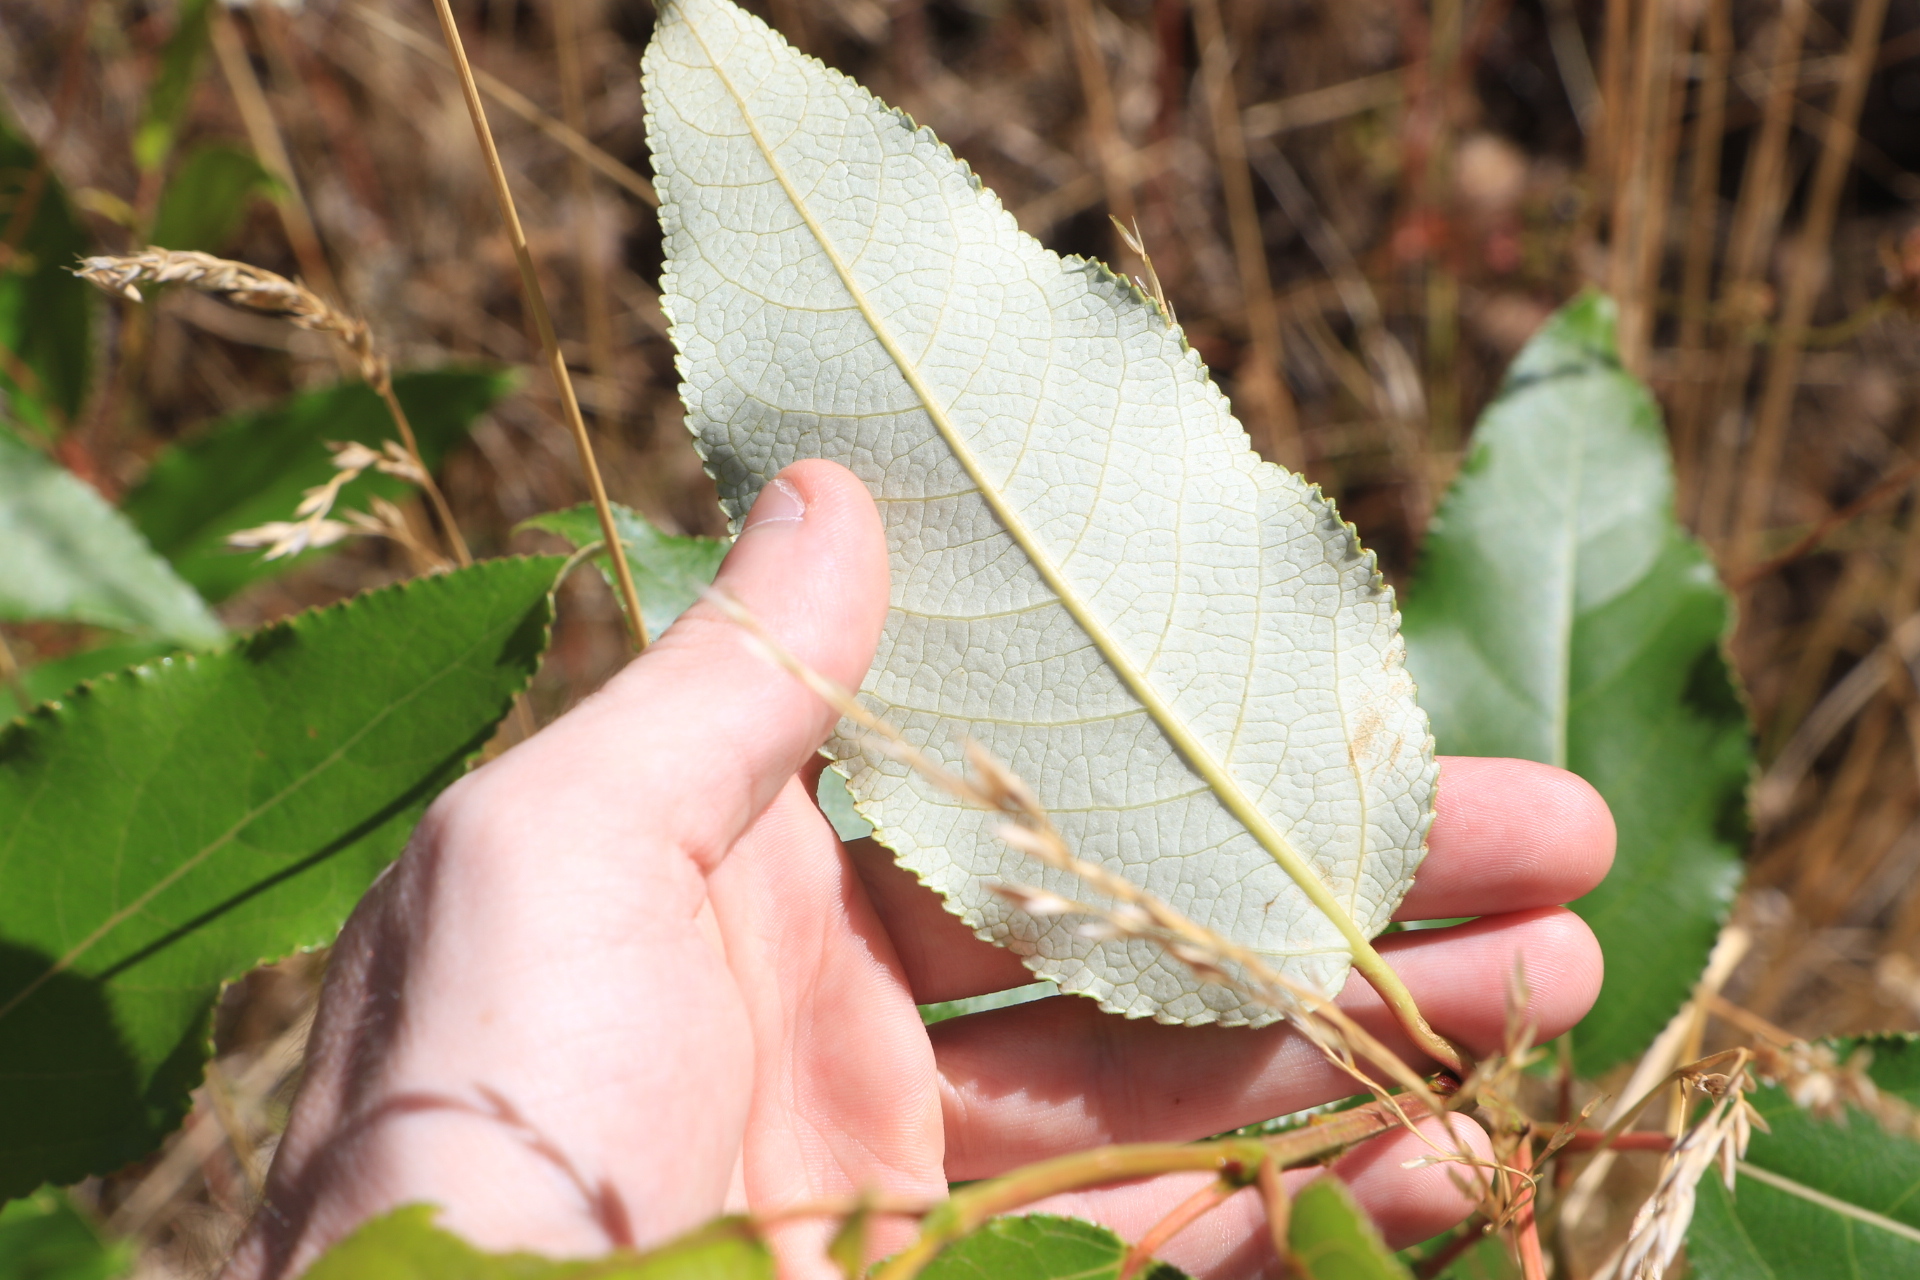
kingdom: Plantae
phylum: Tracheophyta
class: Magnoliopsida
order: Malpighiales
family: Salicaceae
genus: Populus
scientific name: Populus trichocarpa
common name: Black cottonwood
